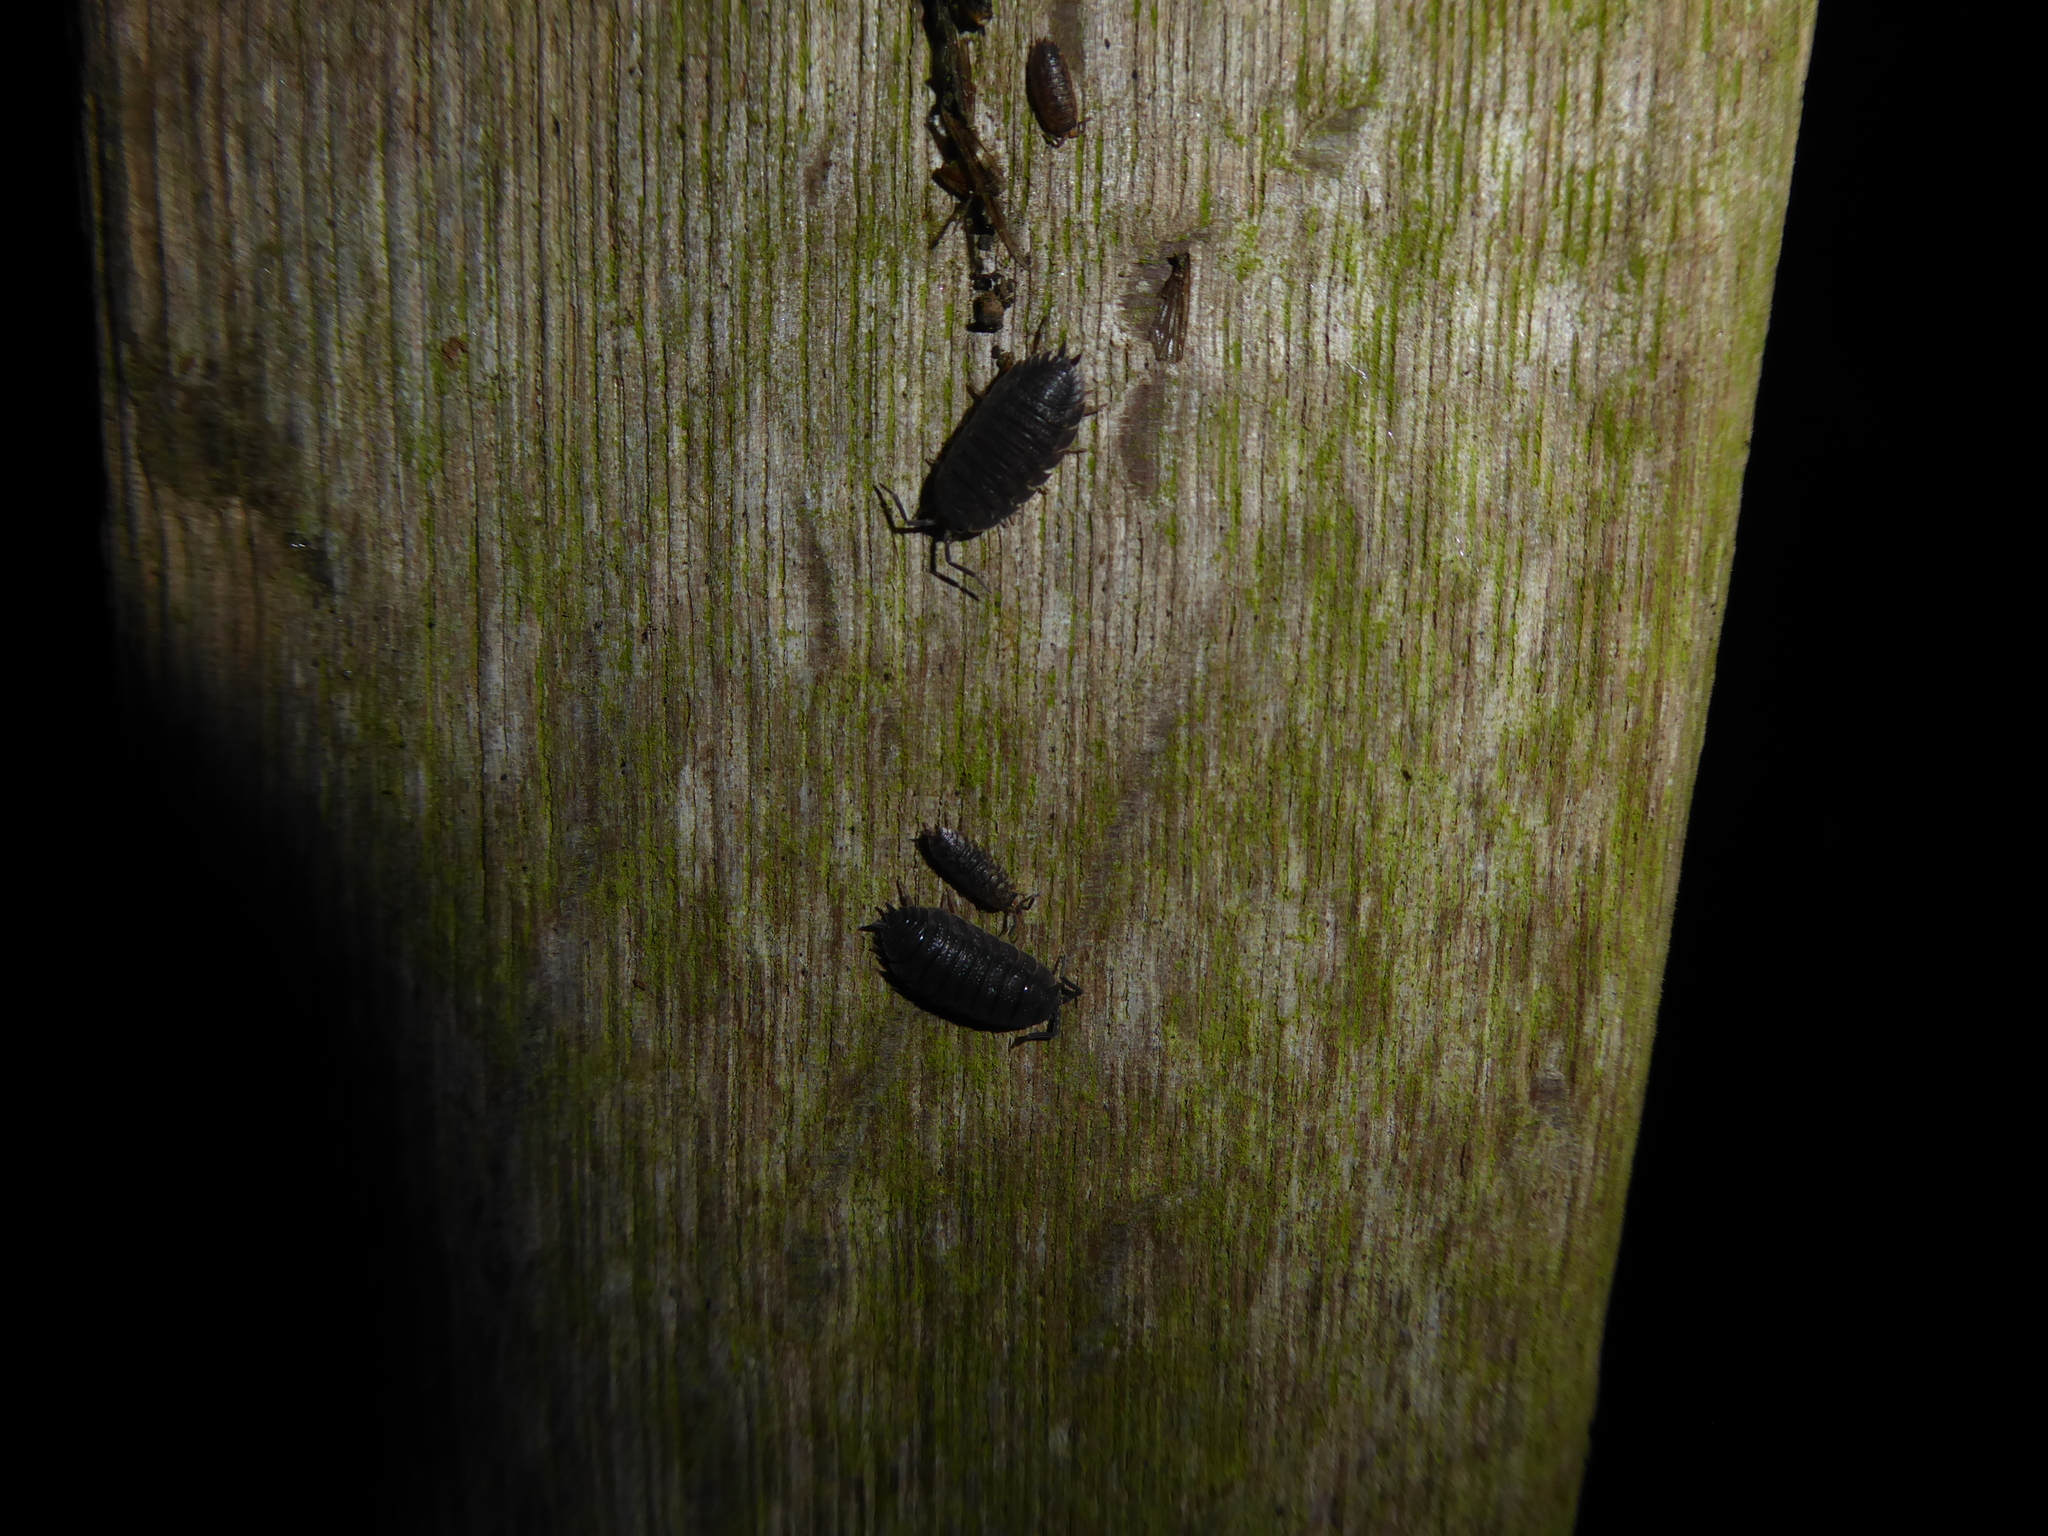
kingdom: Animalia
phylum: Arthropoda
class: Malacostraca
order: Isopoda
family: Porcellionidae
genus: Porcellio
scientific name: Porcellio scaber
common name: Common rough woodlouse
